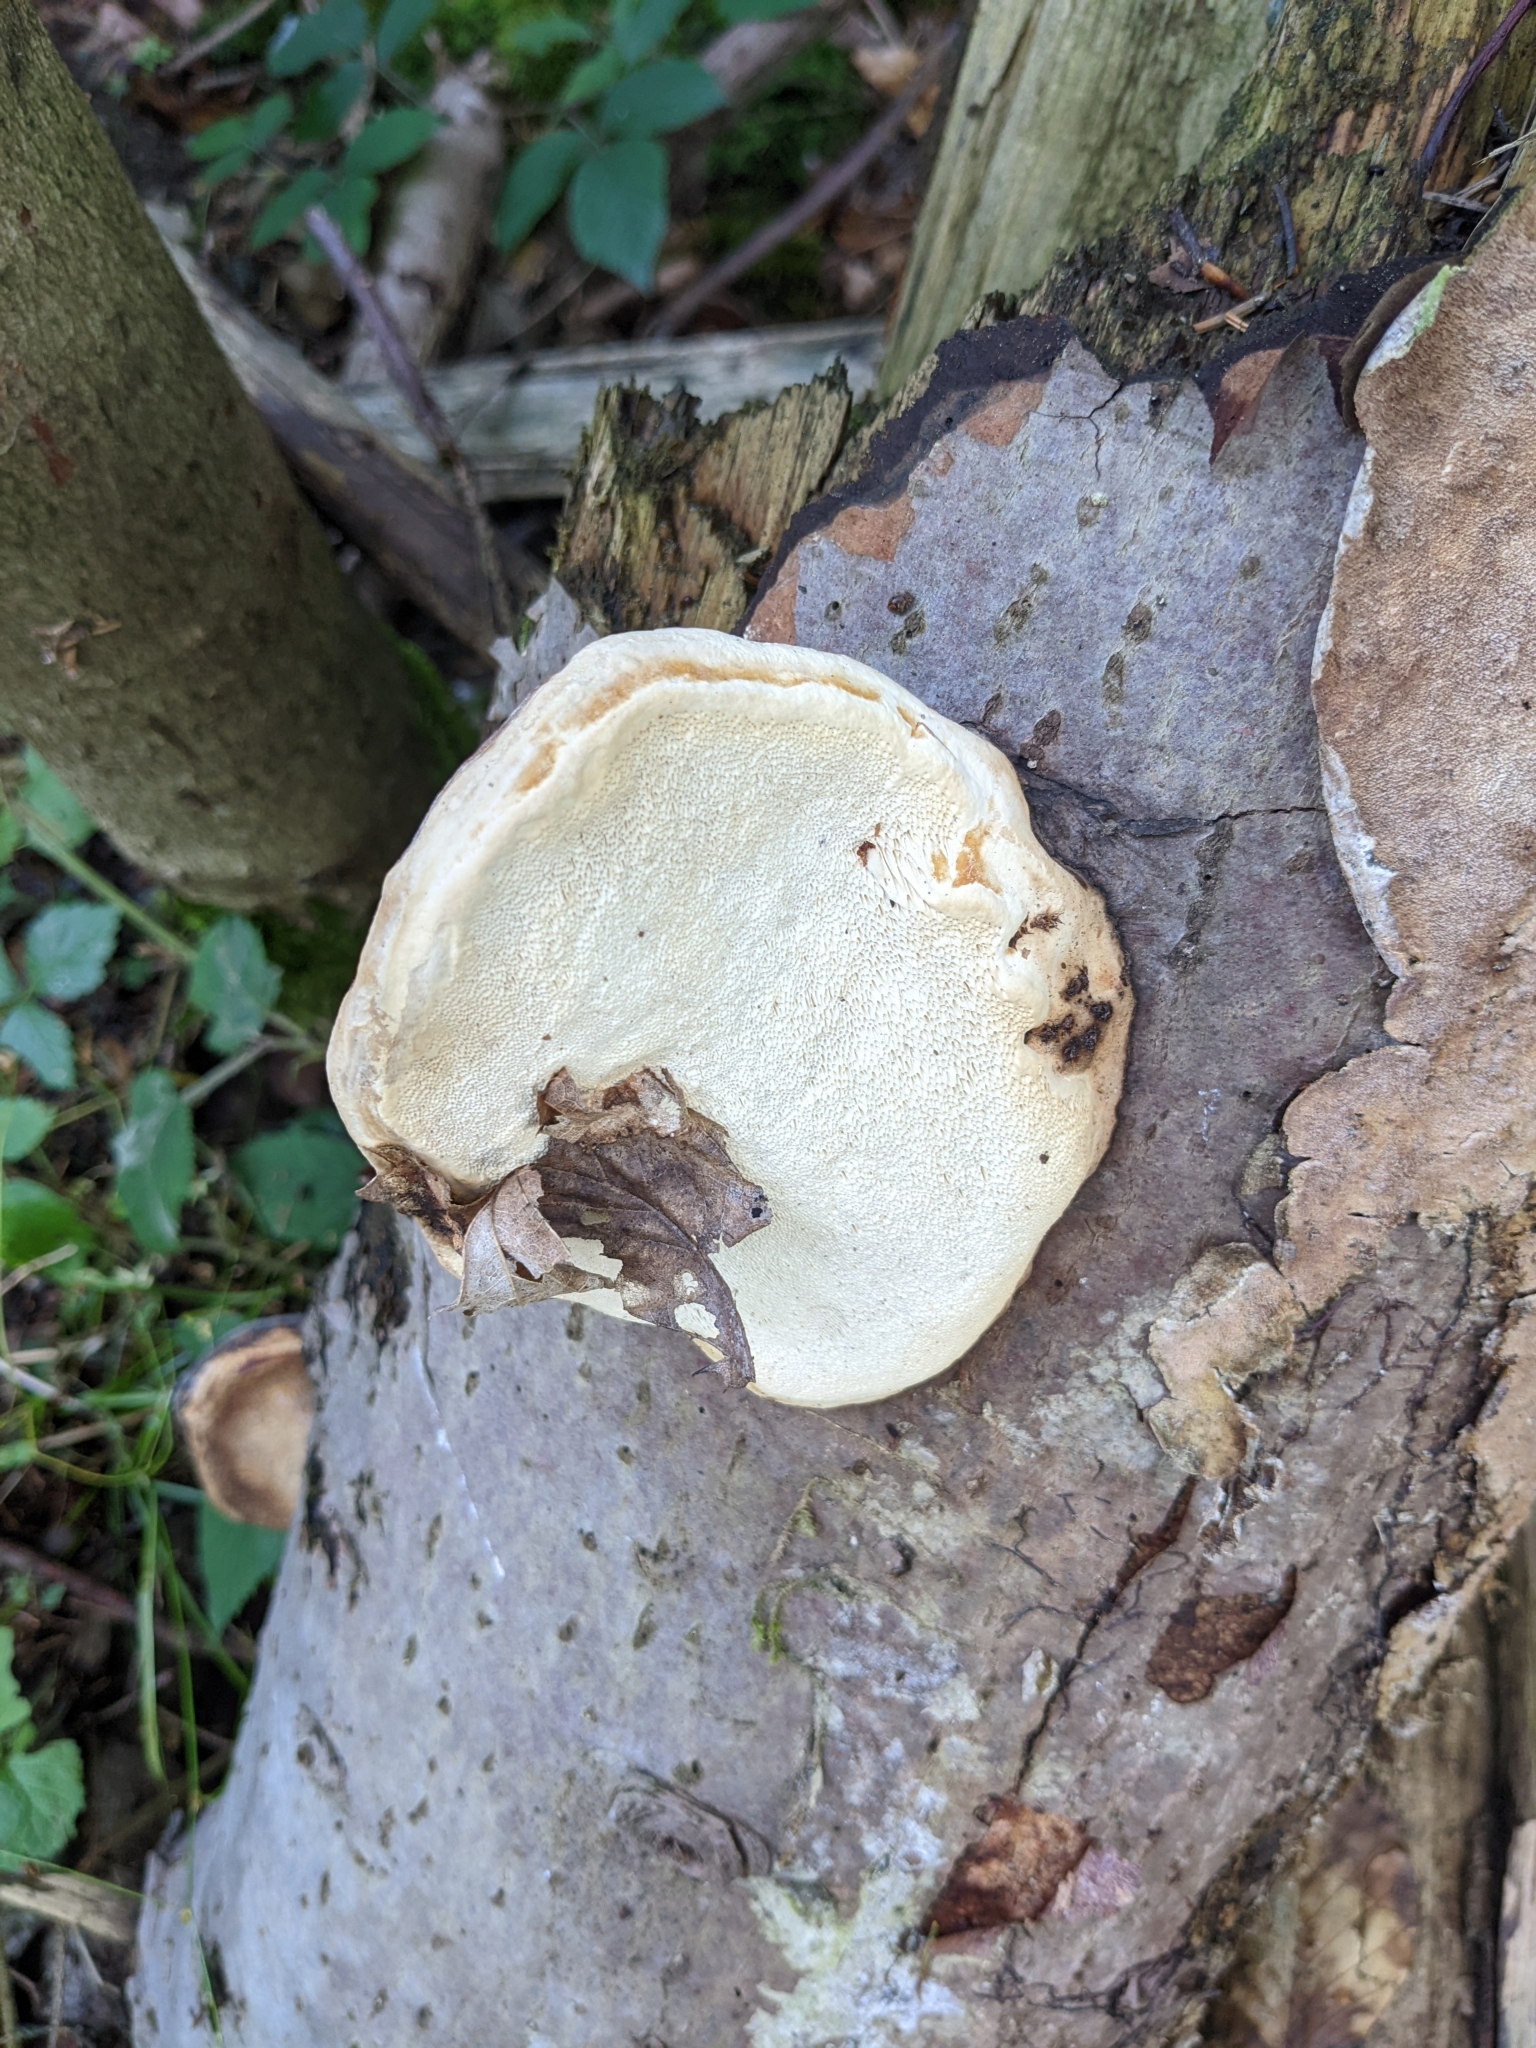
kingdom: Fungi
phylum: Basidiomycota
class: Agaricomycetes
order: Polyporales
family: Fomitopsidaceae
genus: Fomitopsis
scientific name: Fomitopsis pinicola
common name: Red-belted bracket
